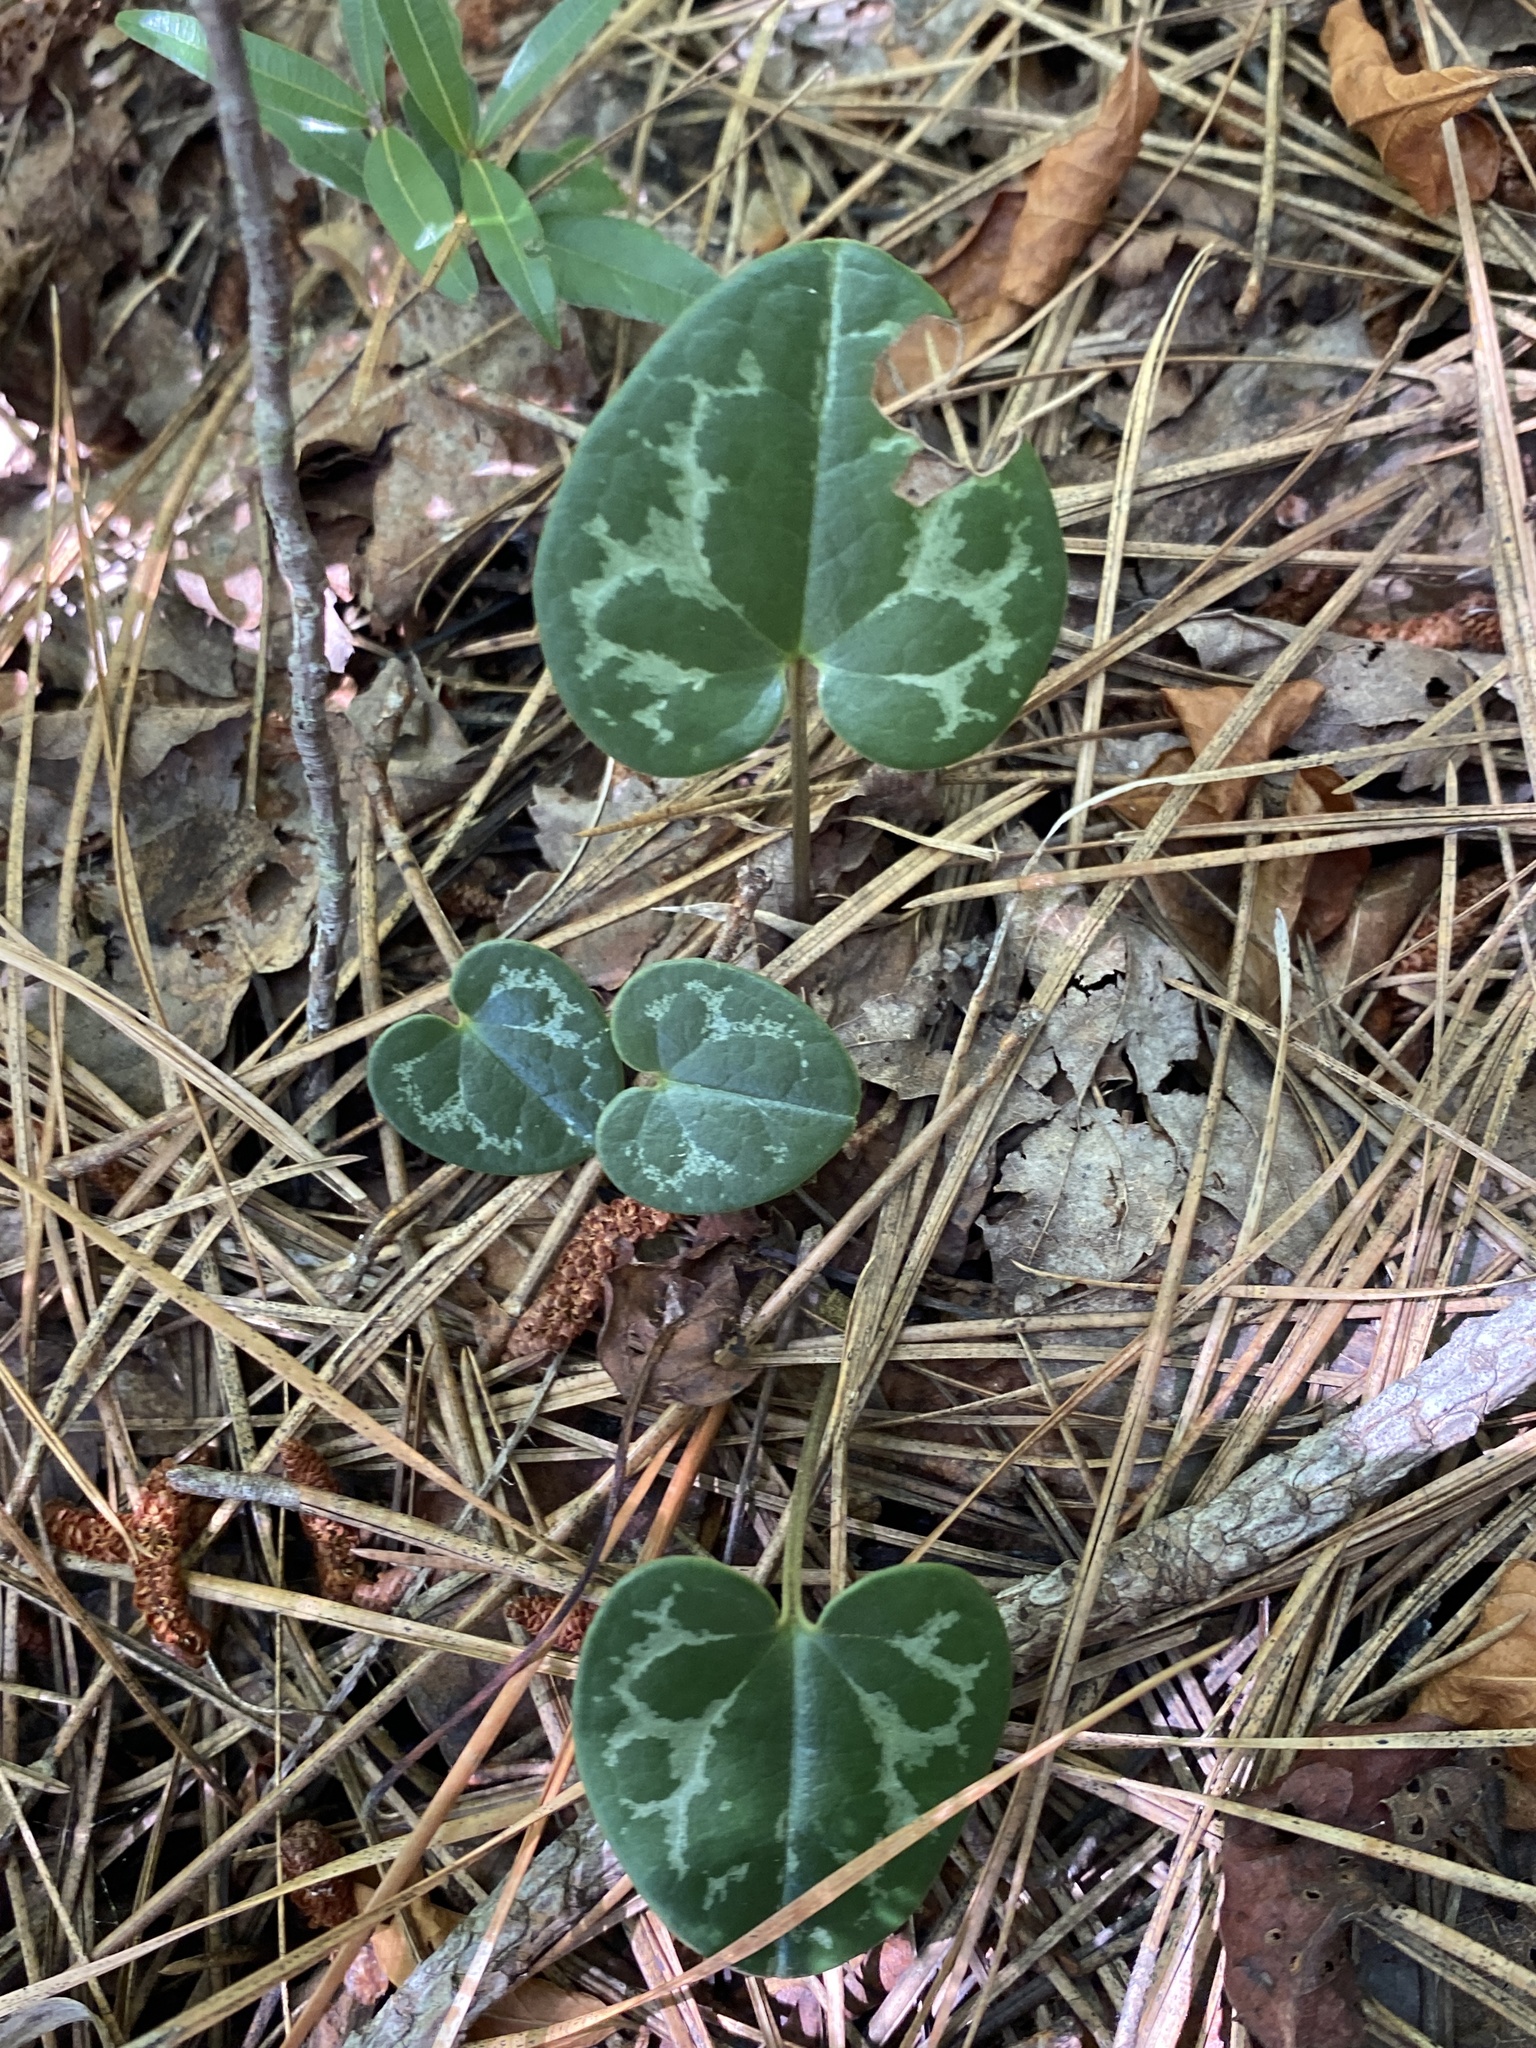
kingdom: Plantae
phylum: Tracheophyta
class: Magnoliopsida
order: Piperales
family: Aristolochiaceae
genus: Hexastylis
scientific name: Hexastylis sorriei
